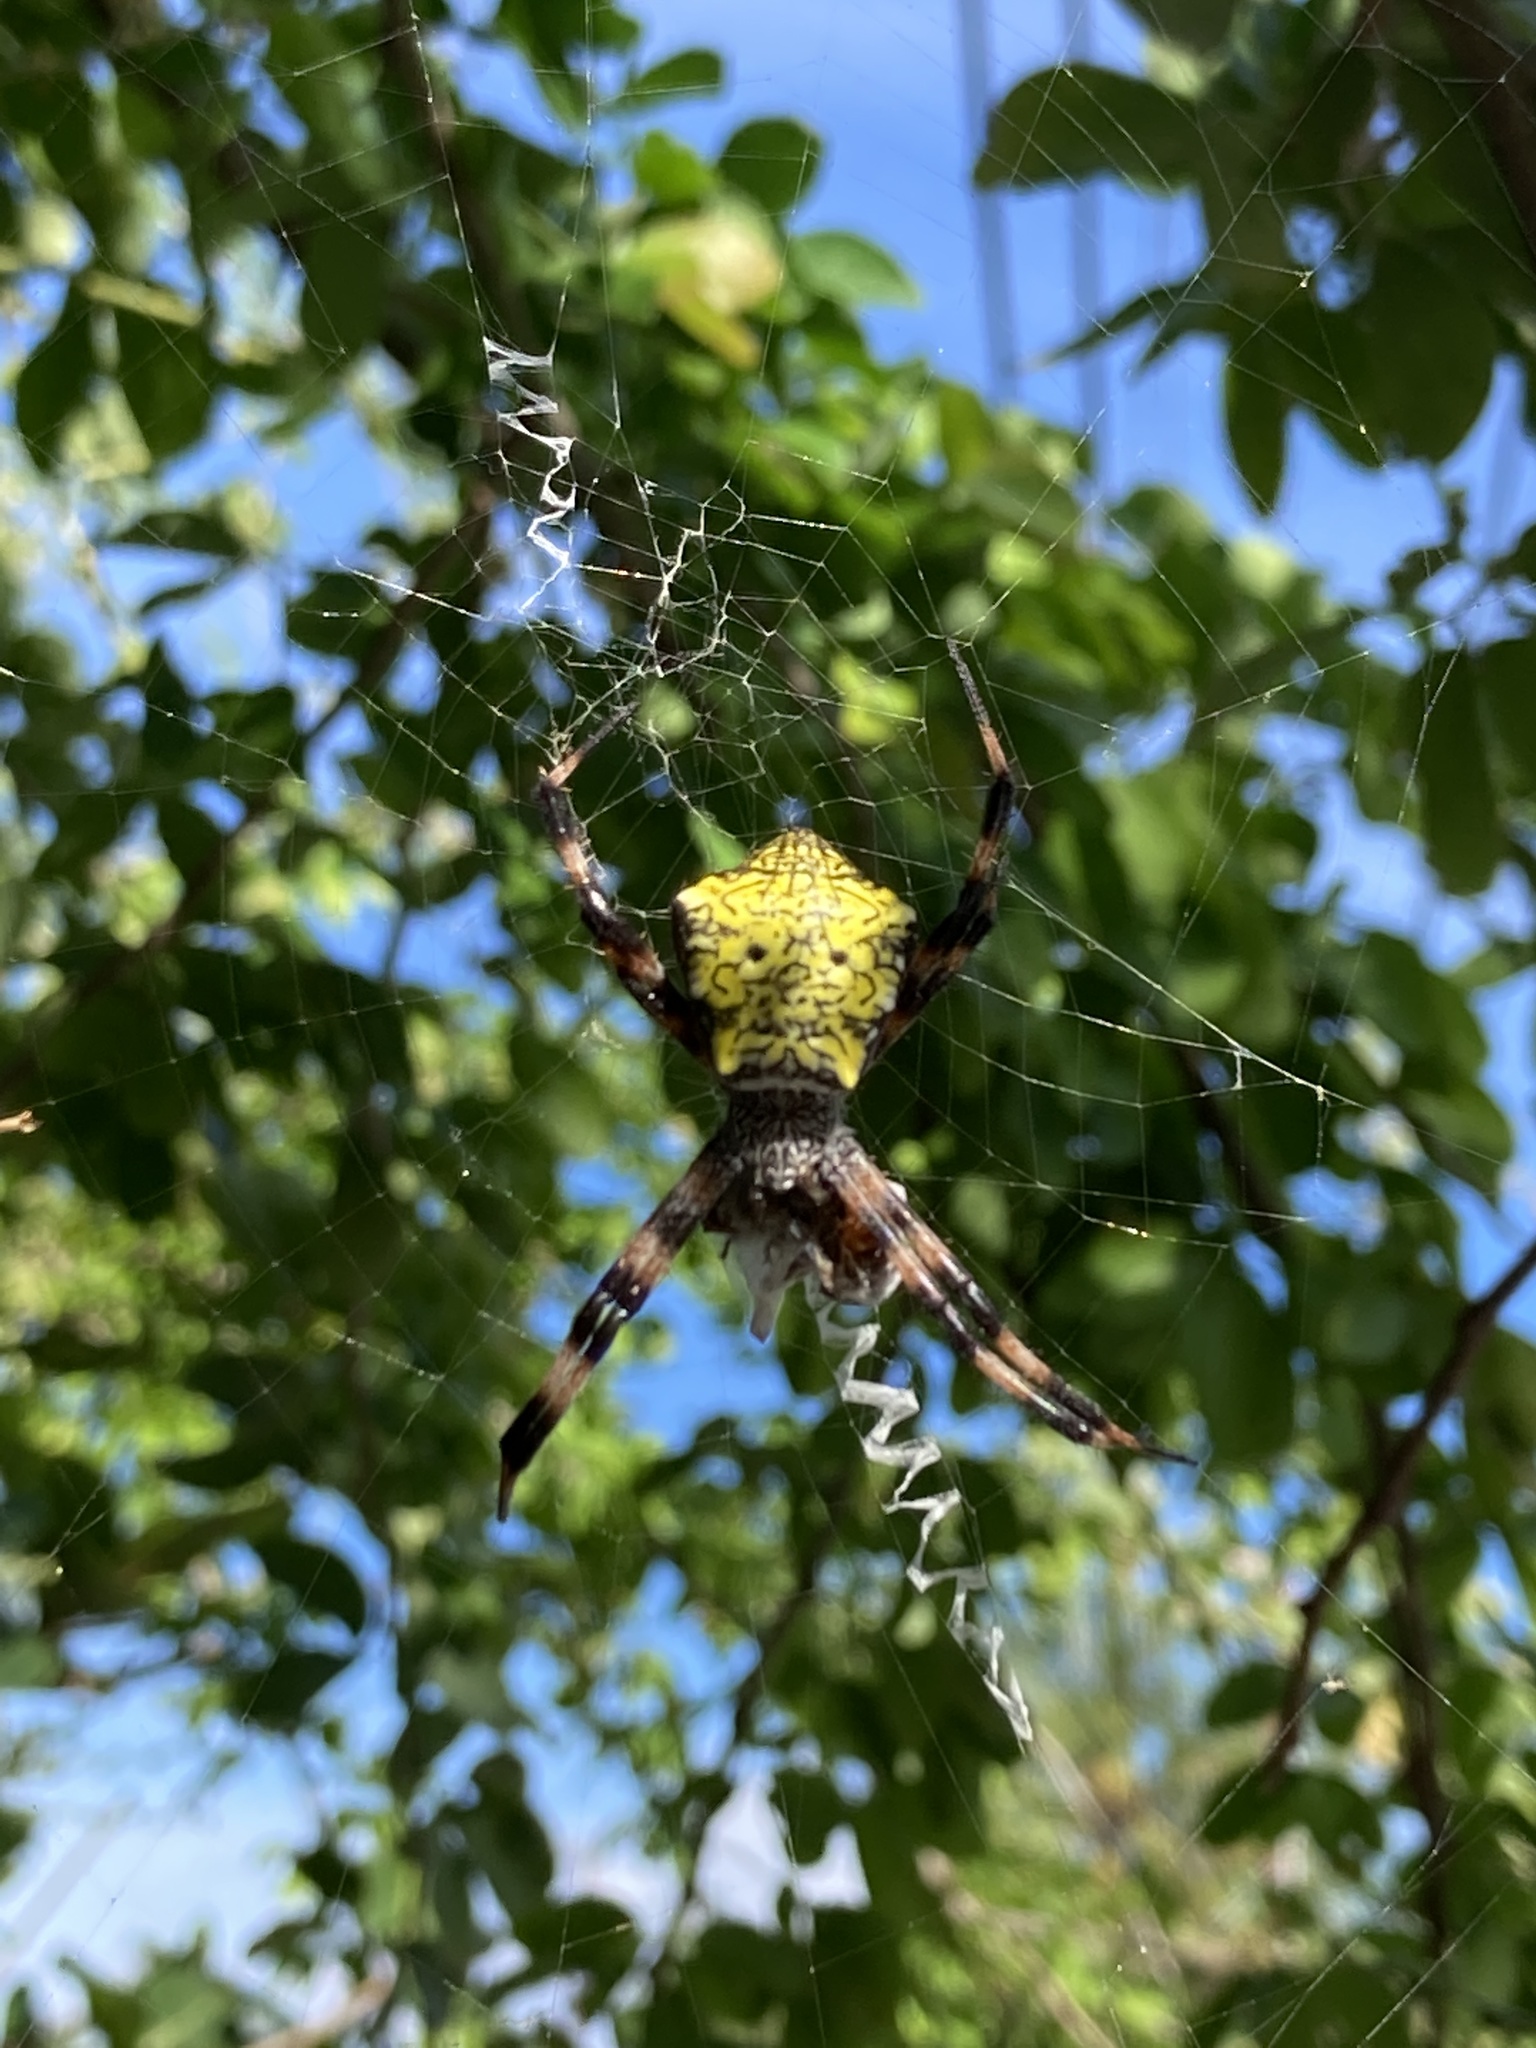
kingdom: Animalia
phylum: Arthropoda
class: Arachnida
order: Araneae
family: Araneidae
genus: Argiope
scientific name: Argiope appensa
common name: Garden spider
